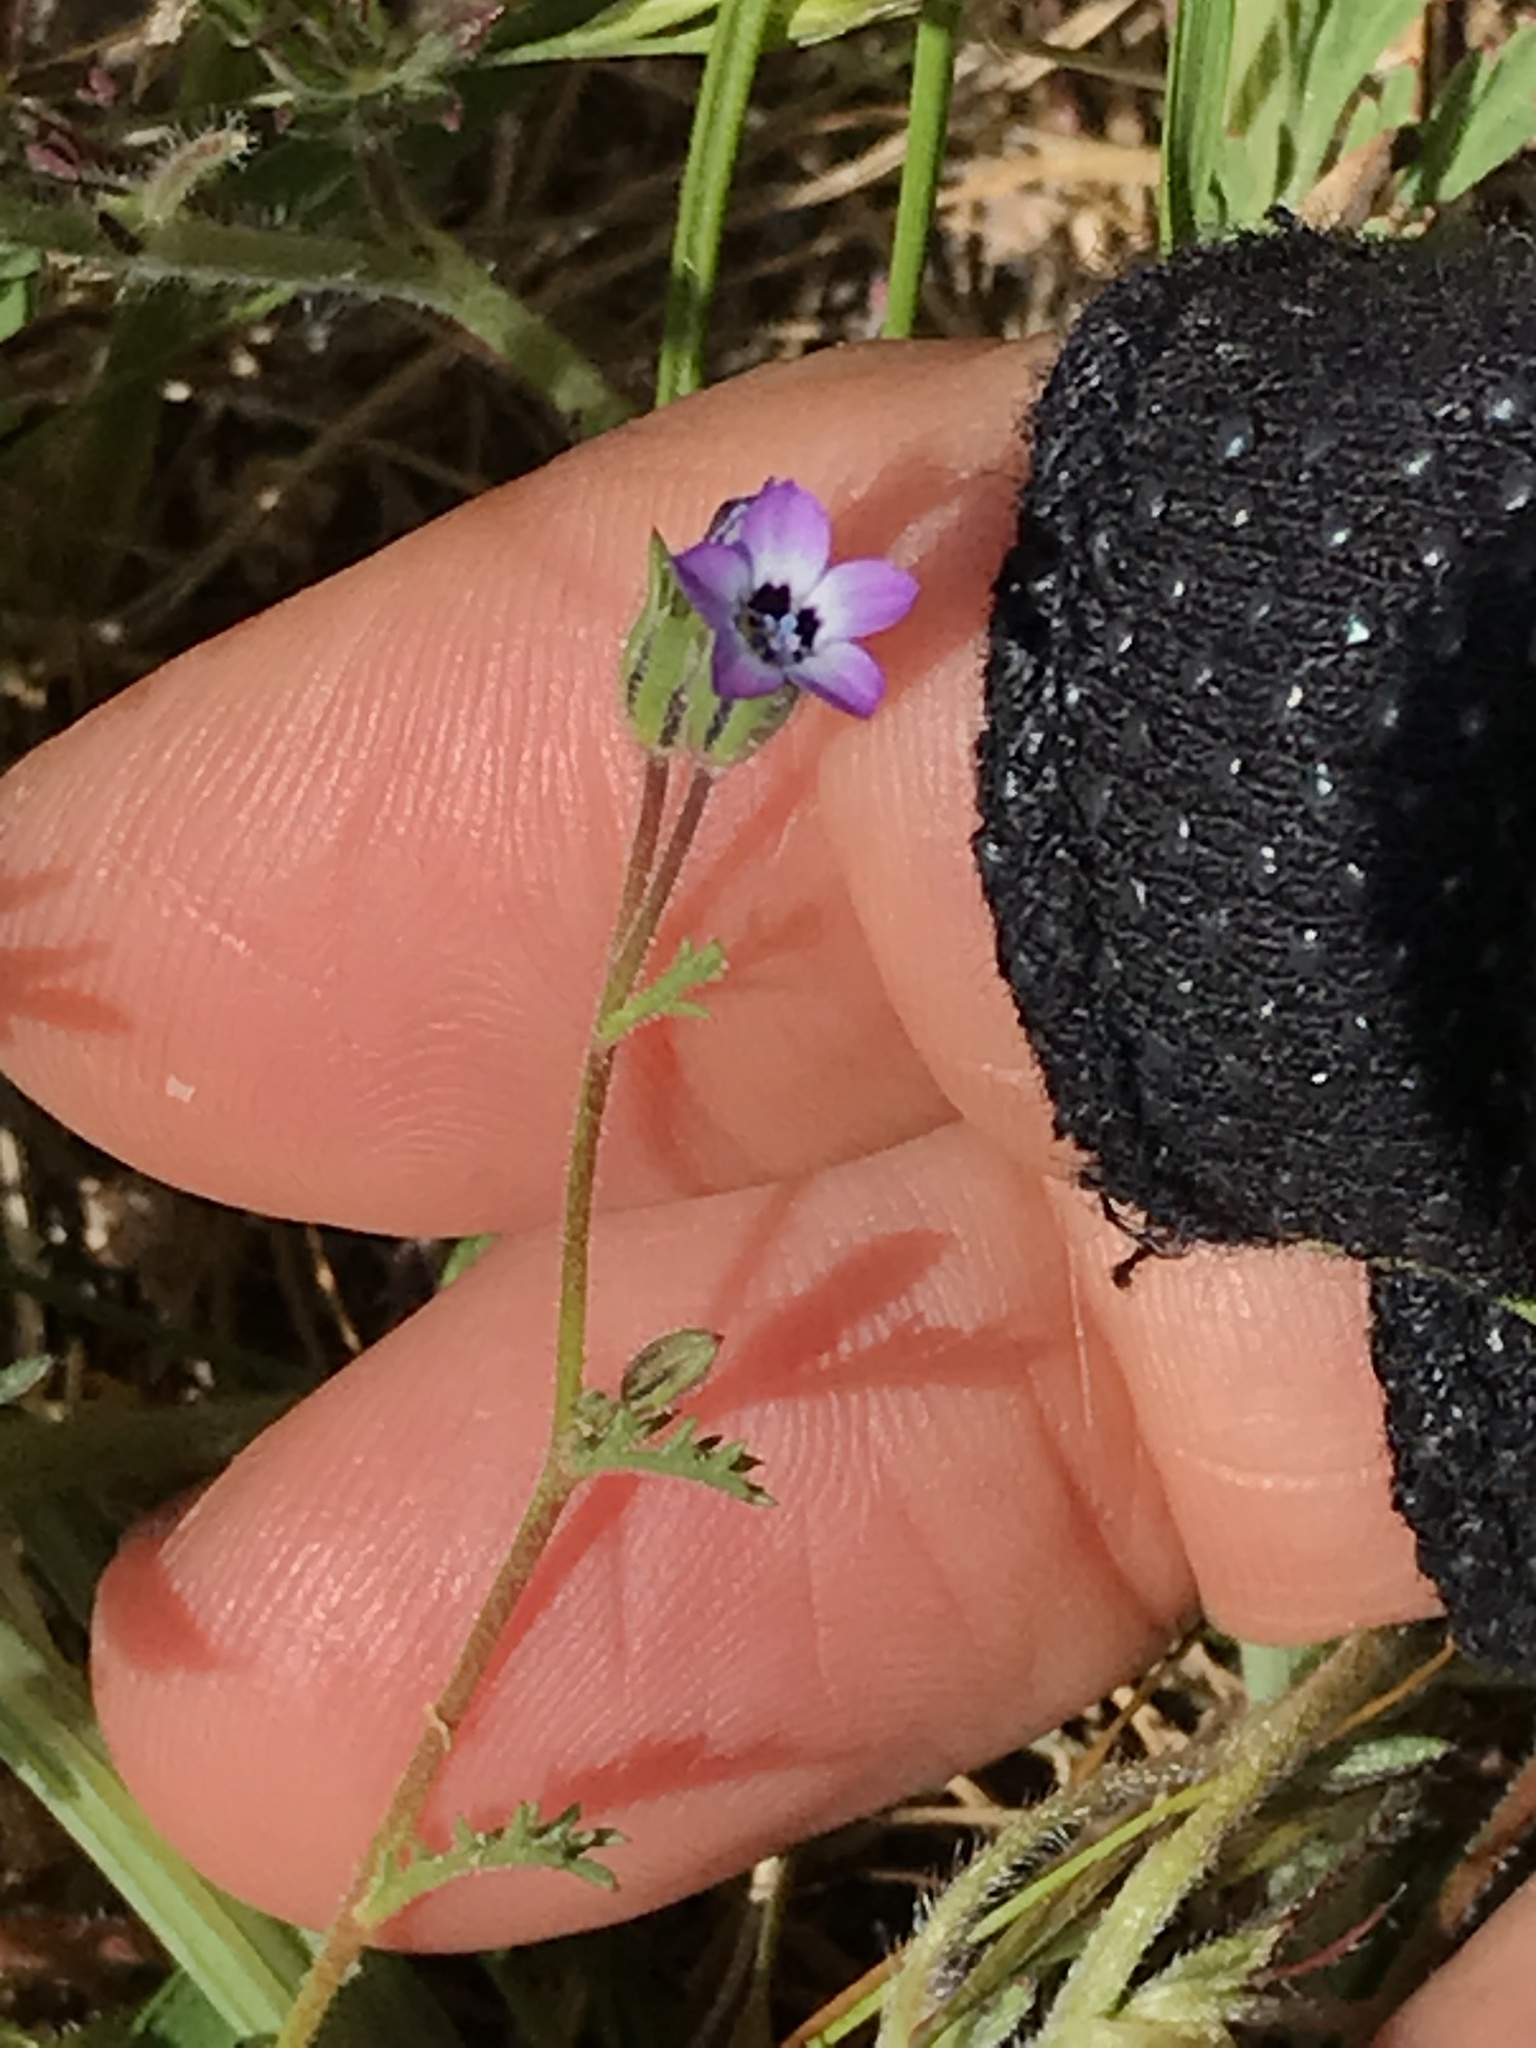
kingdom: Plantae
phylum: Tracheophyta
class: Magnoliopsida
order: Ericales
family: Polemoniaceae
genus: Gilia
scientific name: Gilia clivorum
